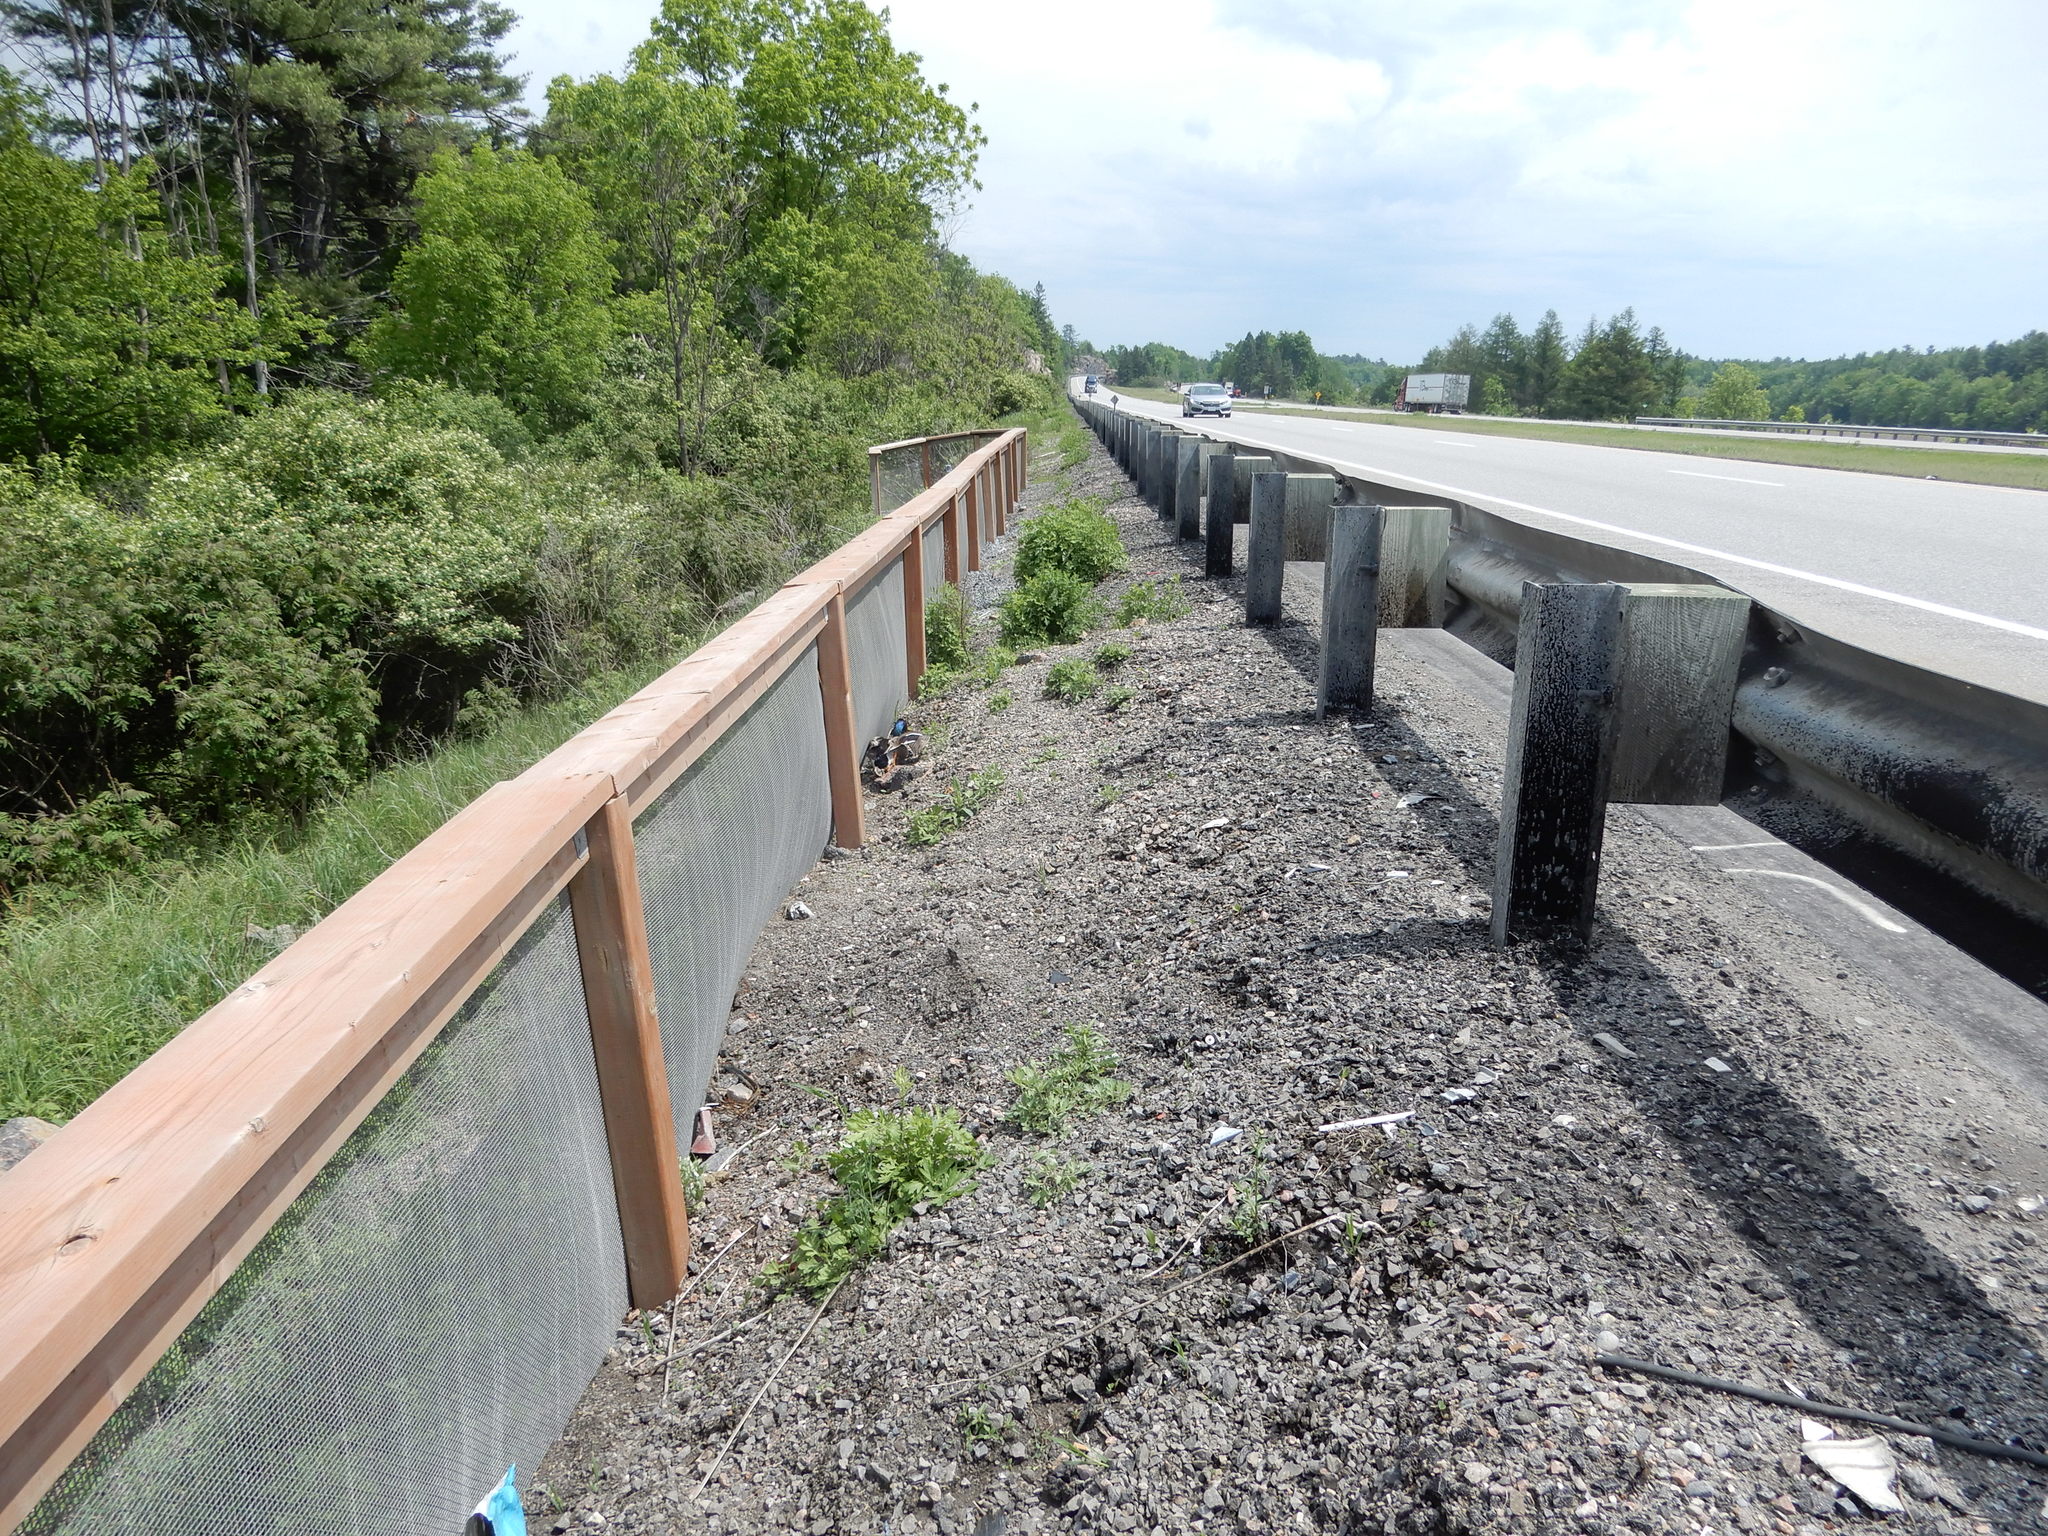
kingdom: Animalia
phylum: Chordata
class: Aves
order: Anseriformes
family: Anatidae
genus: Anas
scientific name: Anas platyrhynchos
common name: Mallard
